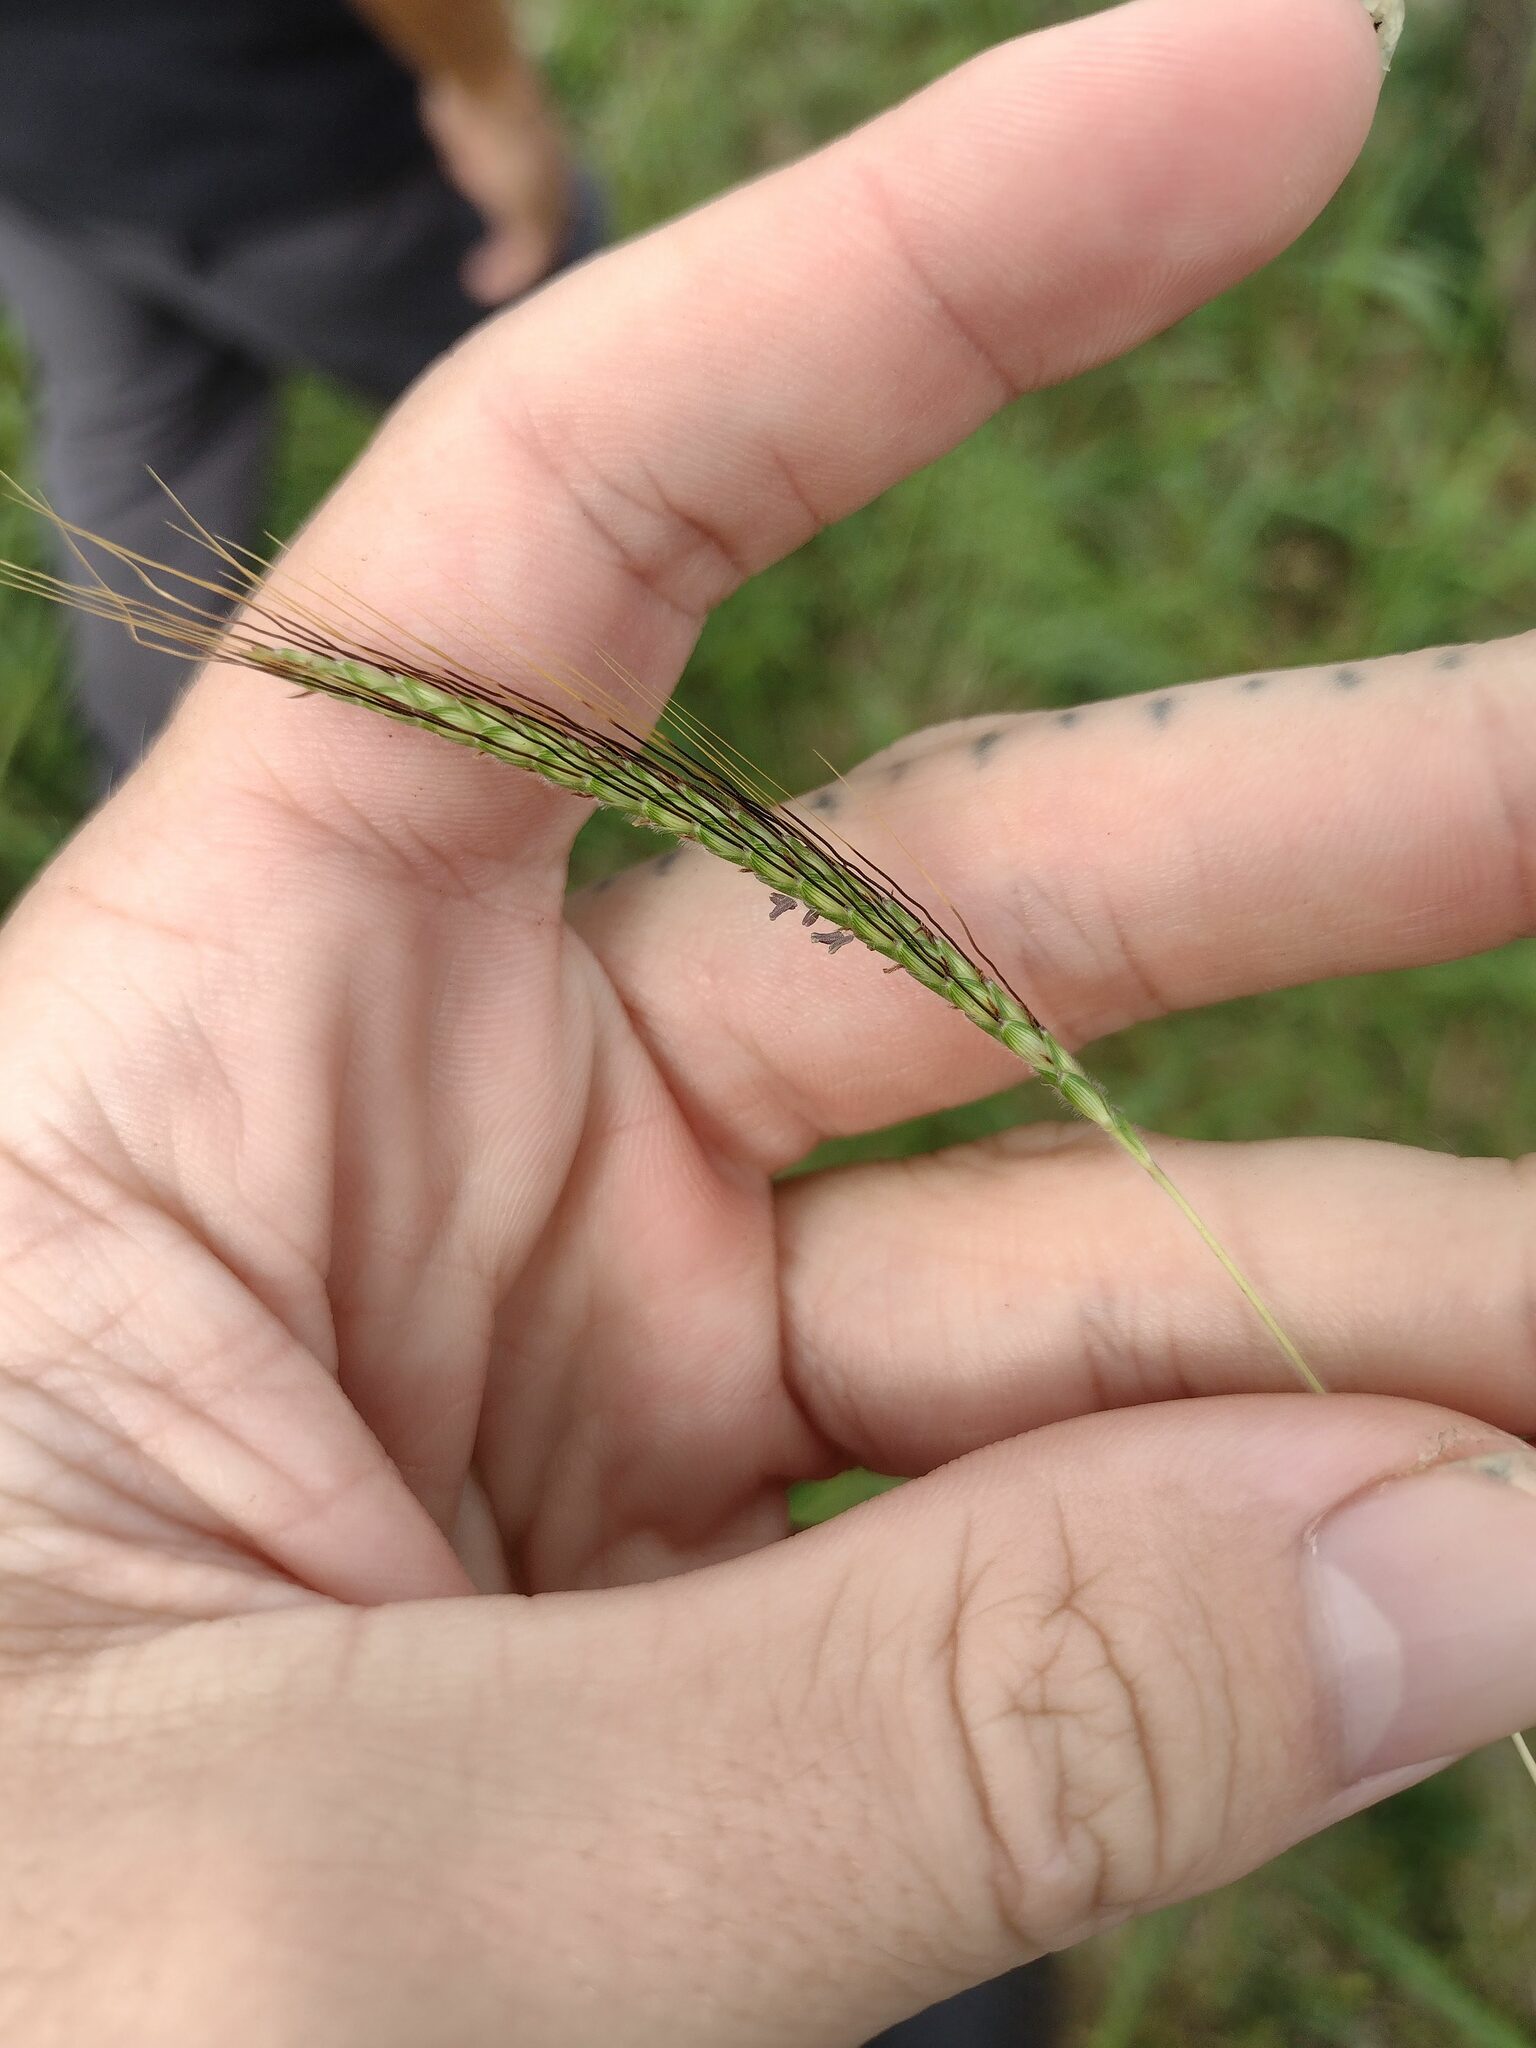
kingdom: Plantae
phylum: Tracheophyta
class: Liliopsida
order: Poales
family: Poaceae
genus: Dichanthium
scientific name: Dichanthium aristatum
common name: Angleton bluestem
